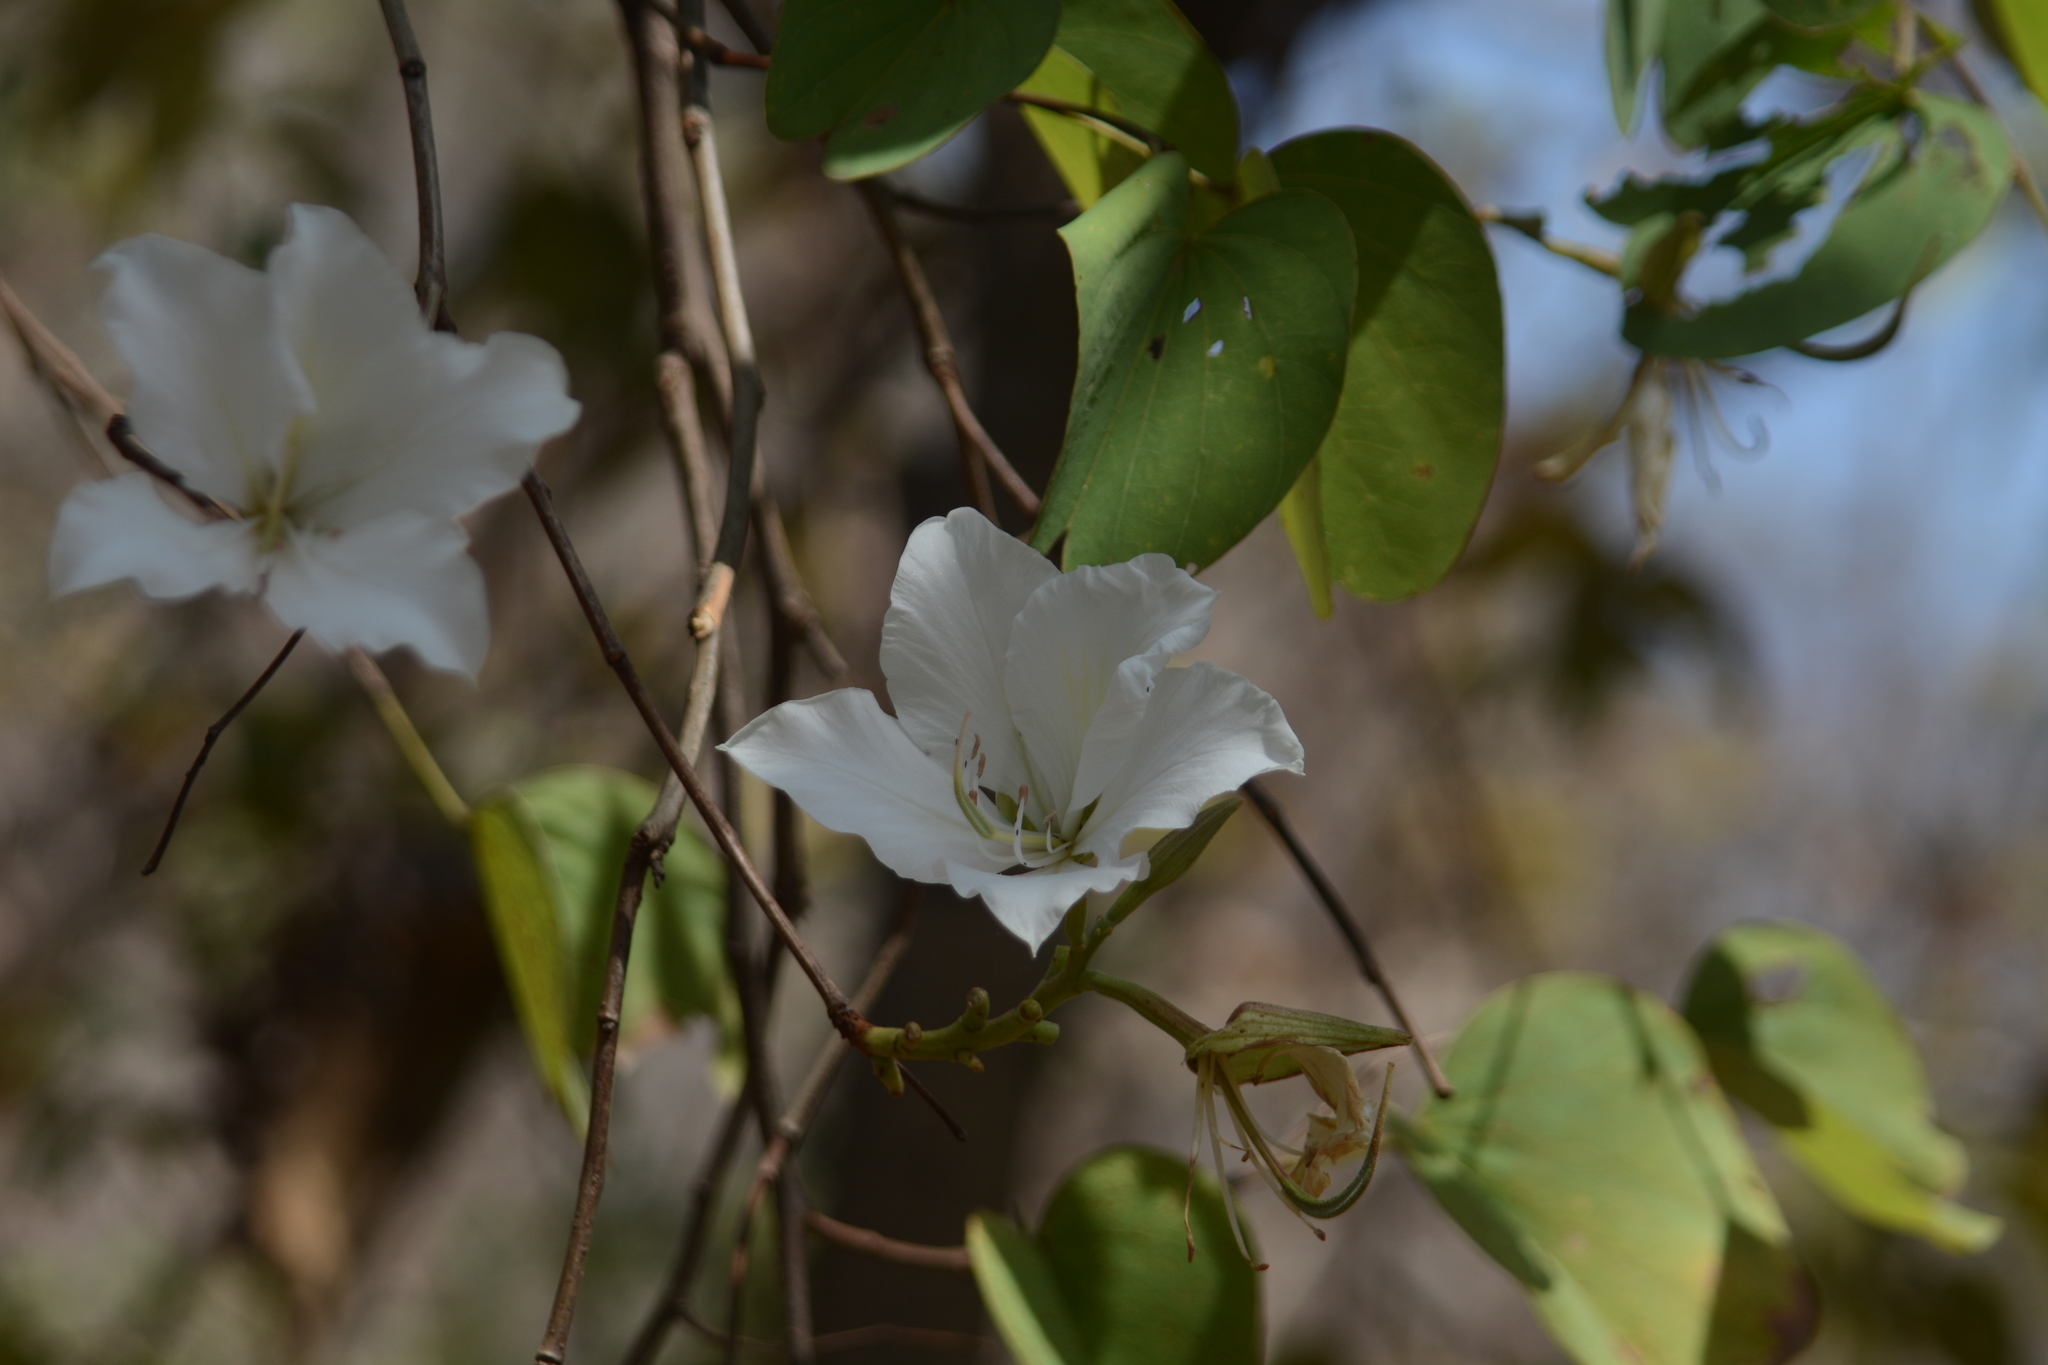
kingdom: Plantae
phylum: Tracheophyta
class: Magnoliopsida
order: Fabales
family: Fabaceae
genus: Bauhinia
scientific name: Bauhinia variegata
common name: Mountain ebony
